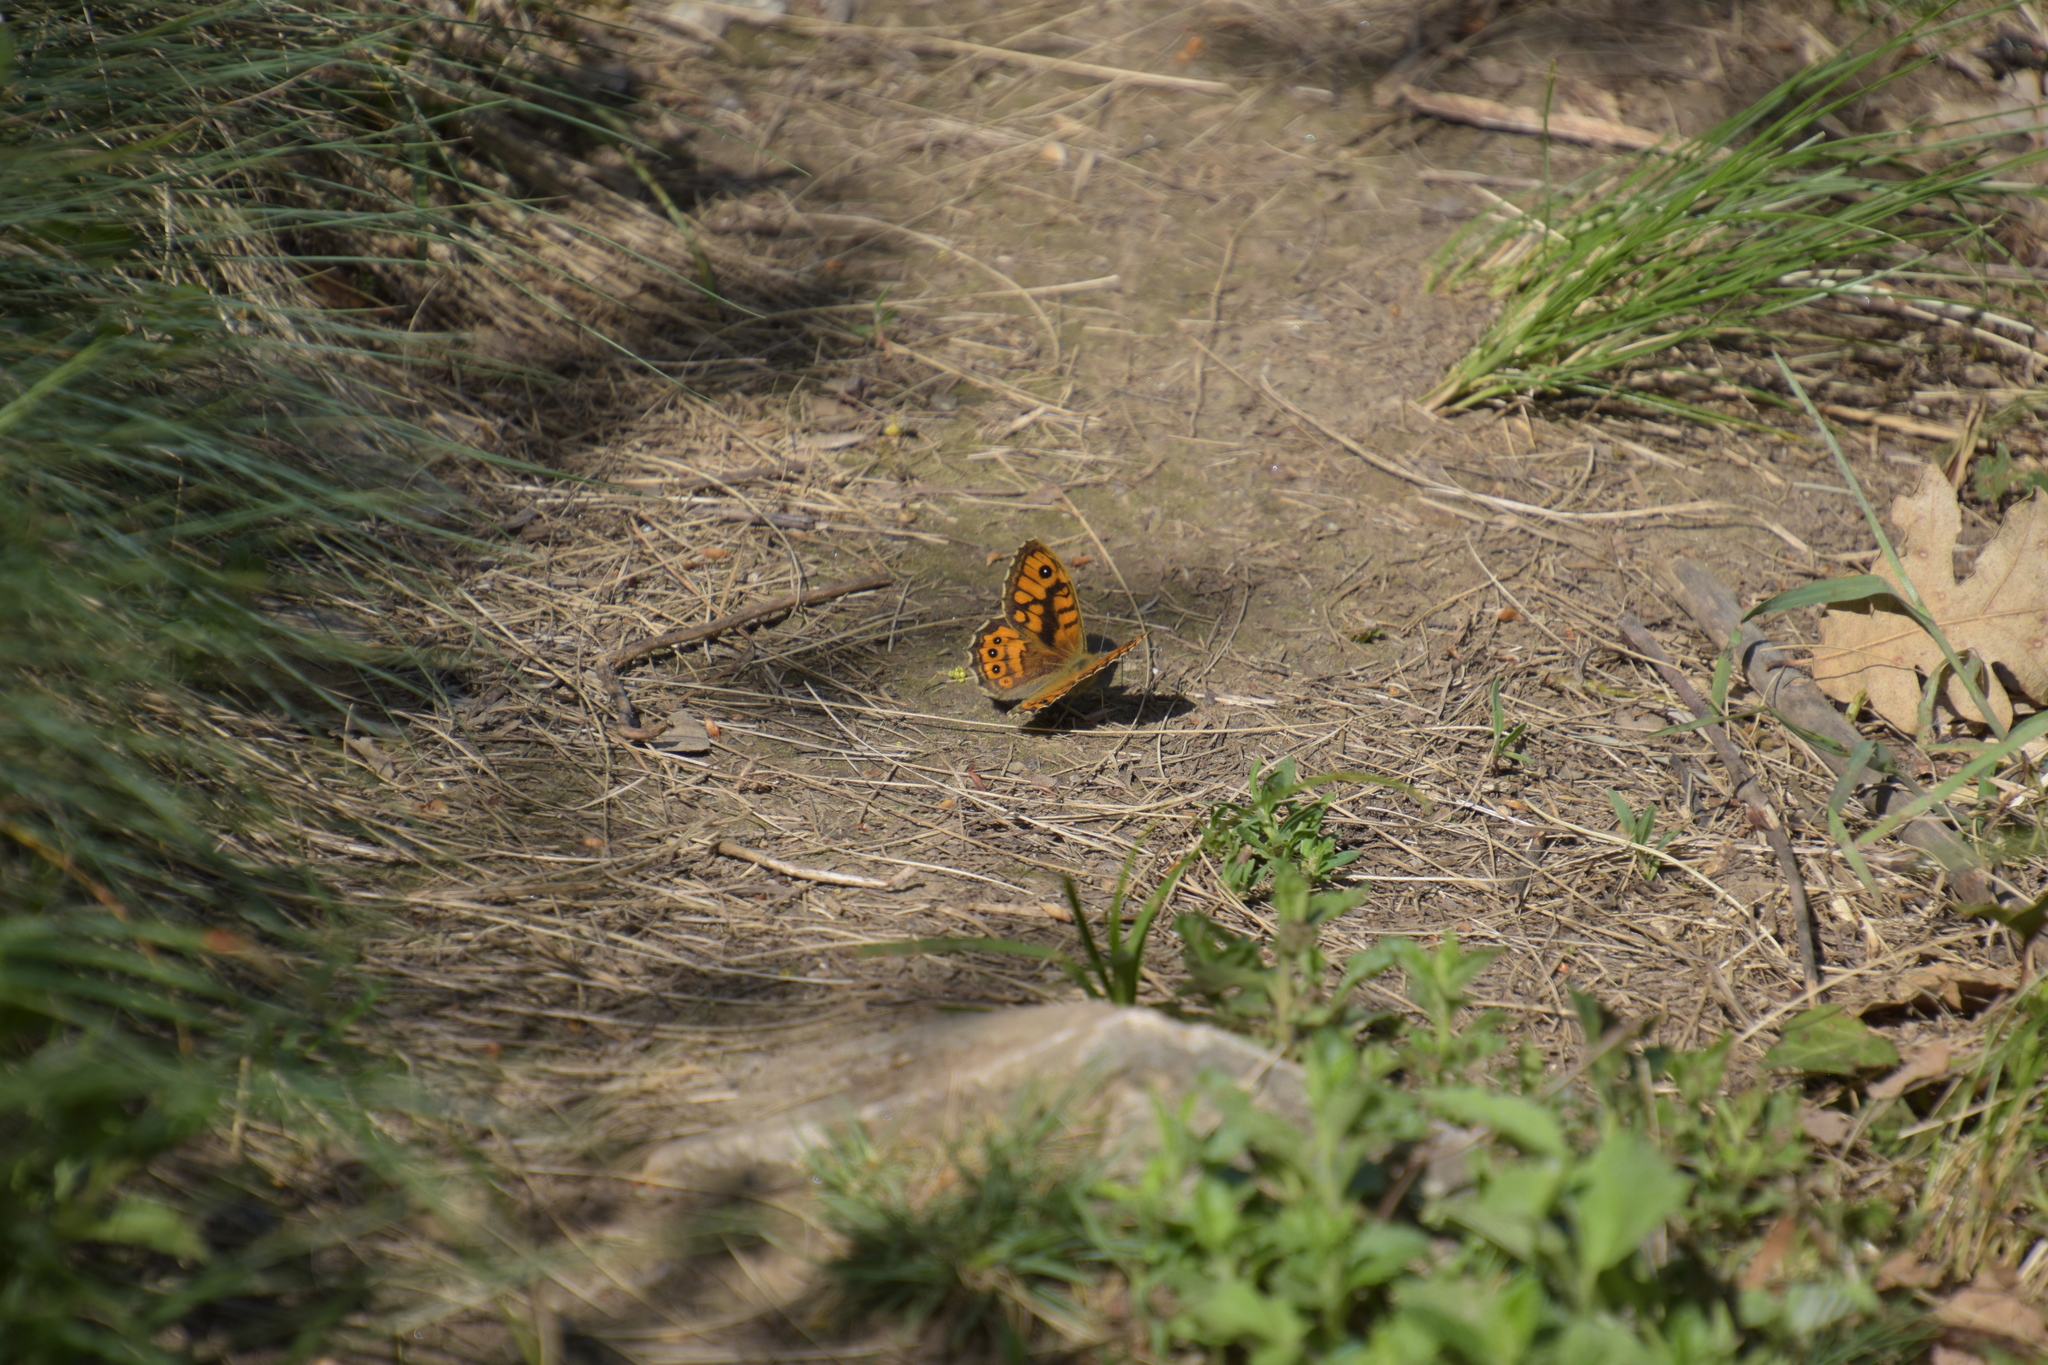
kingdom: Animalia
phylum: Arthropoda
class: Insecta
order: Lepidoptera
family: Nymphalidae
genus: Pararge
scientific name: Pararge Lasiommata megera
